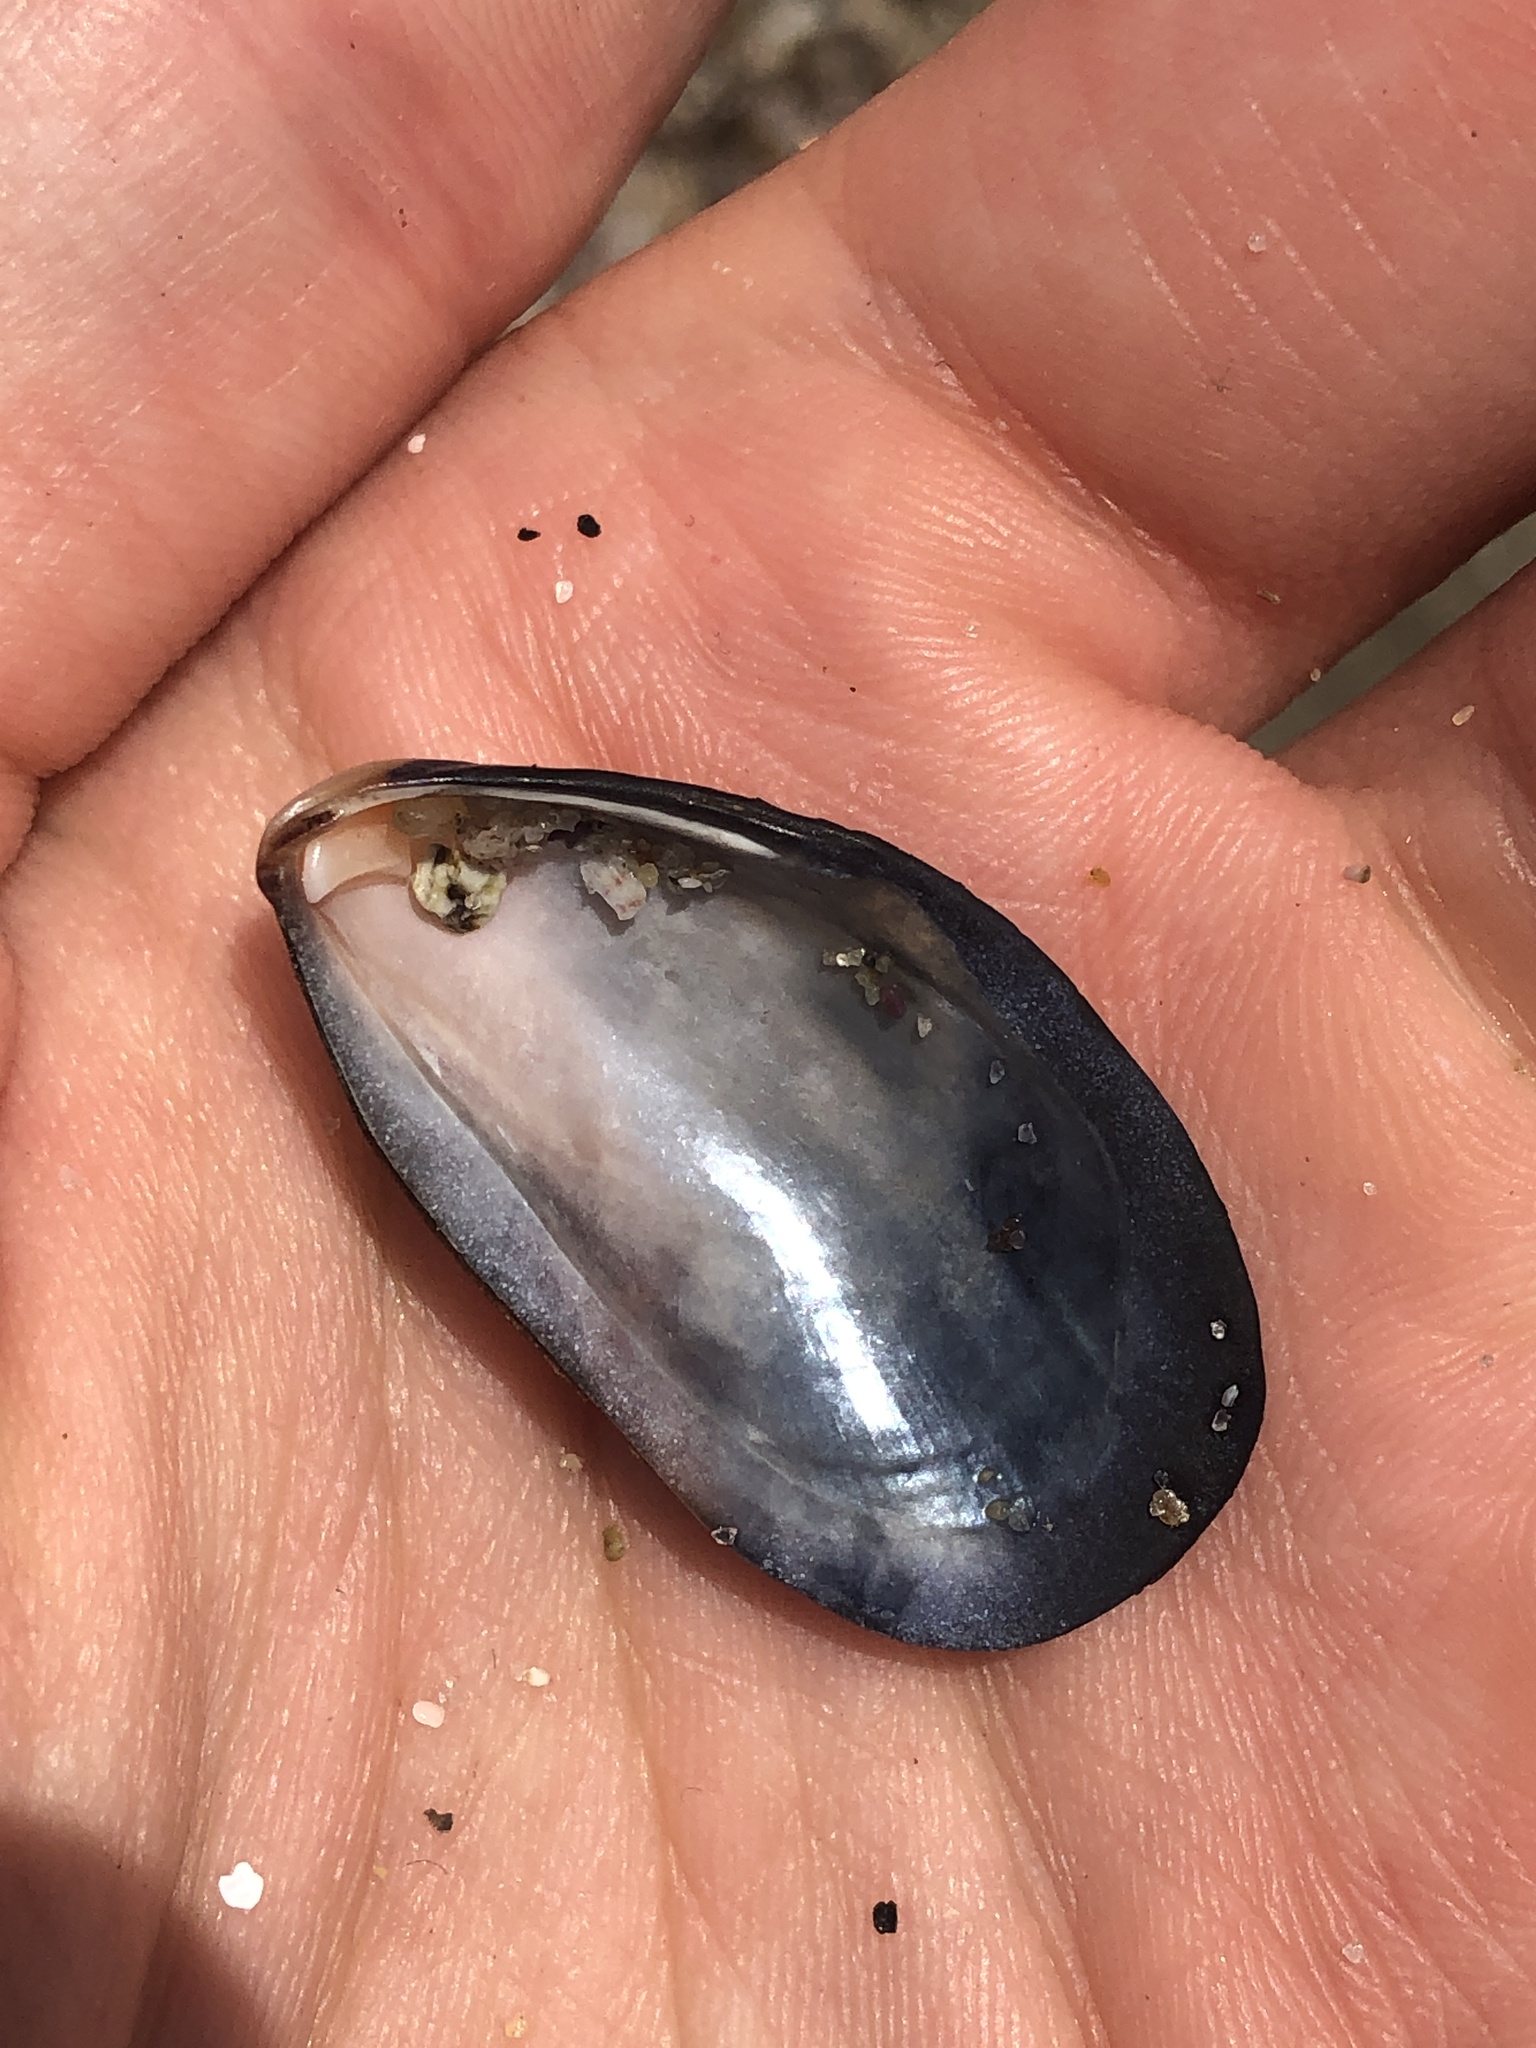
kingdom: Animalia
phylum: Mollusca
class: Bivalvia
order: Mytilida
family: Mytilidae
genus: Mytilus
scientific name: Mytilus californianus
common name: California mussel
